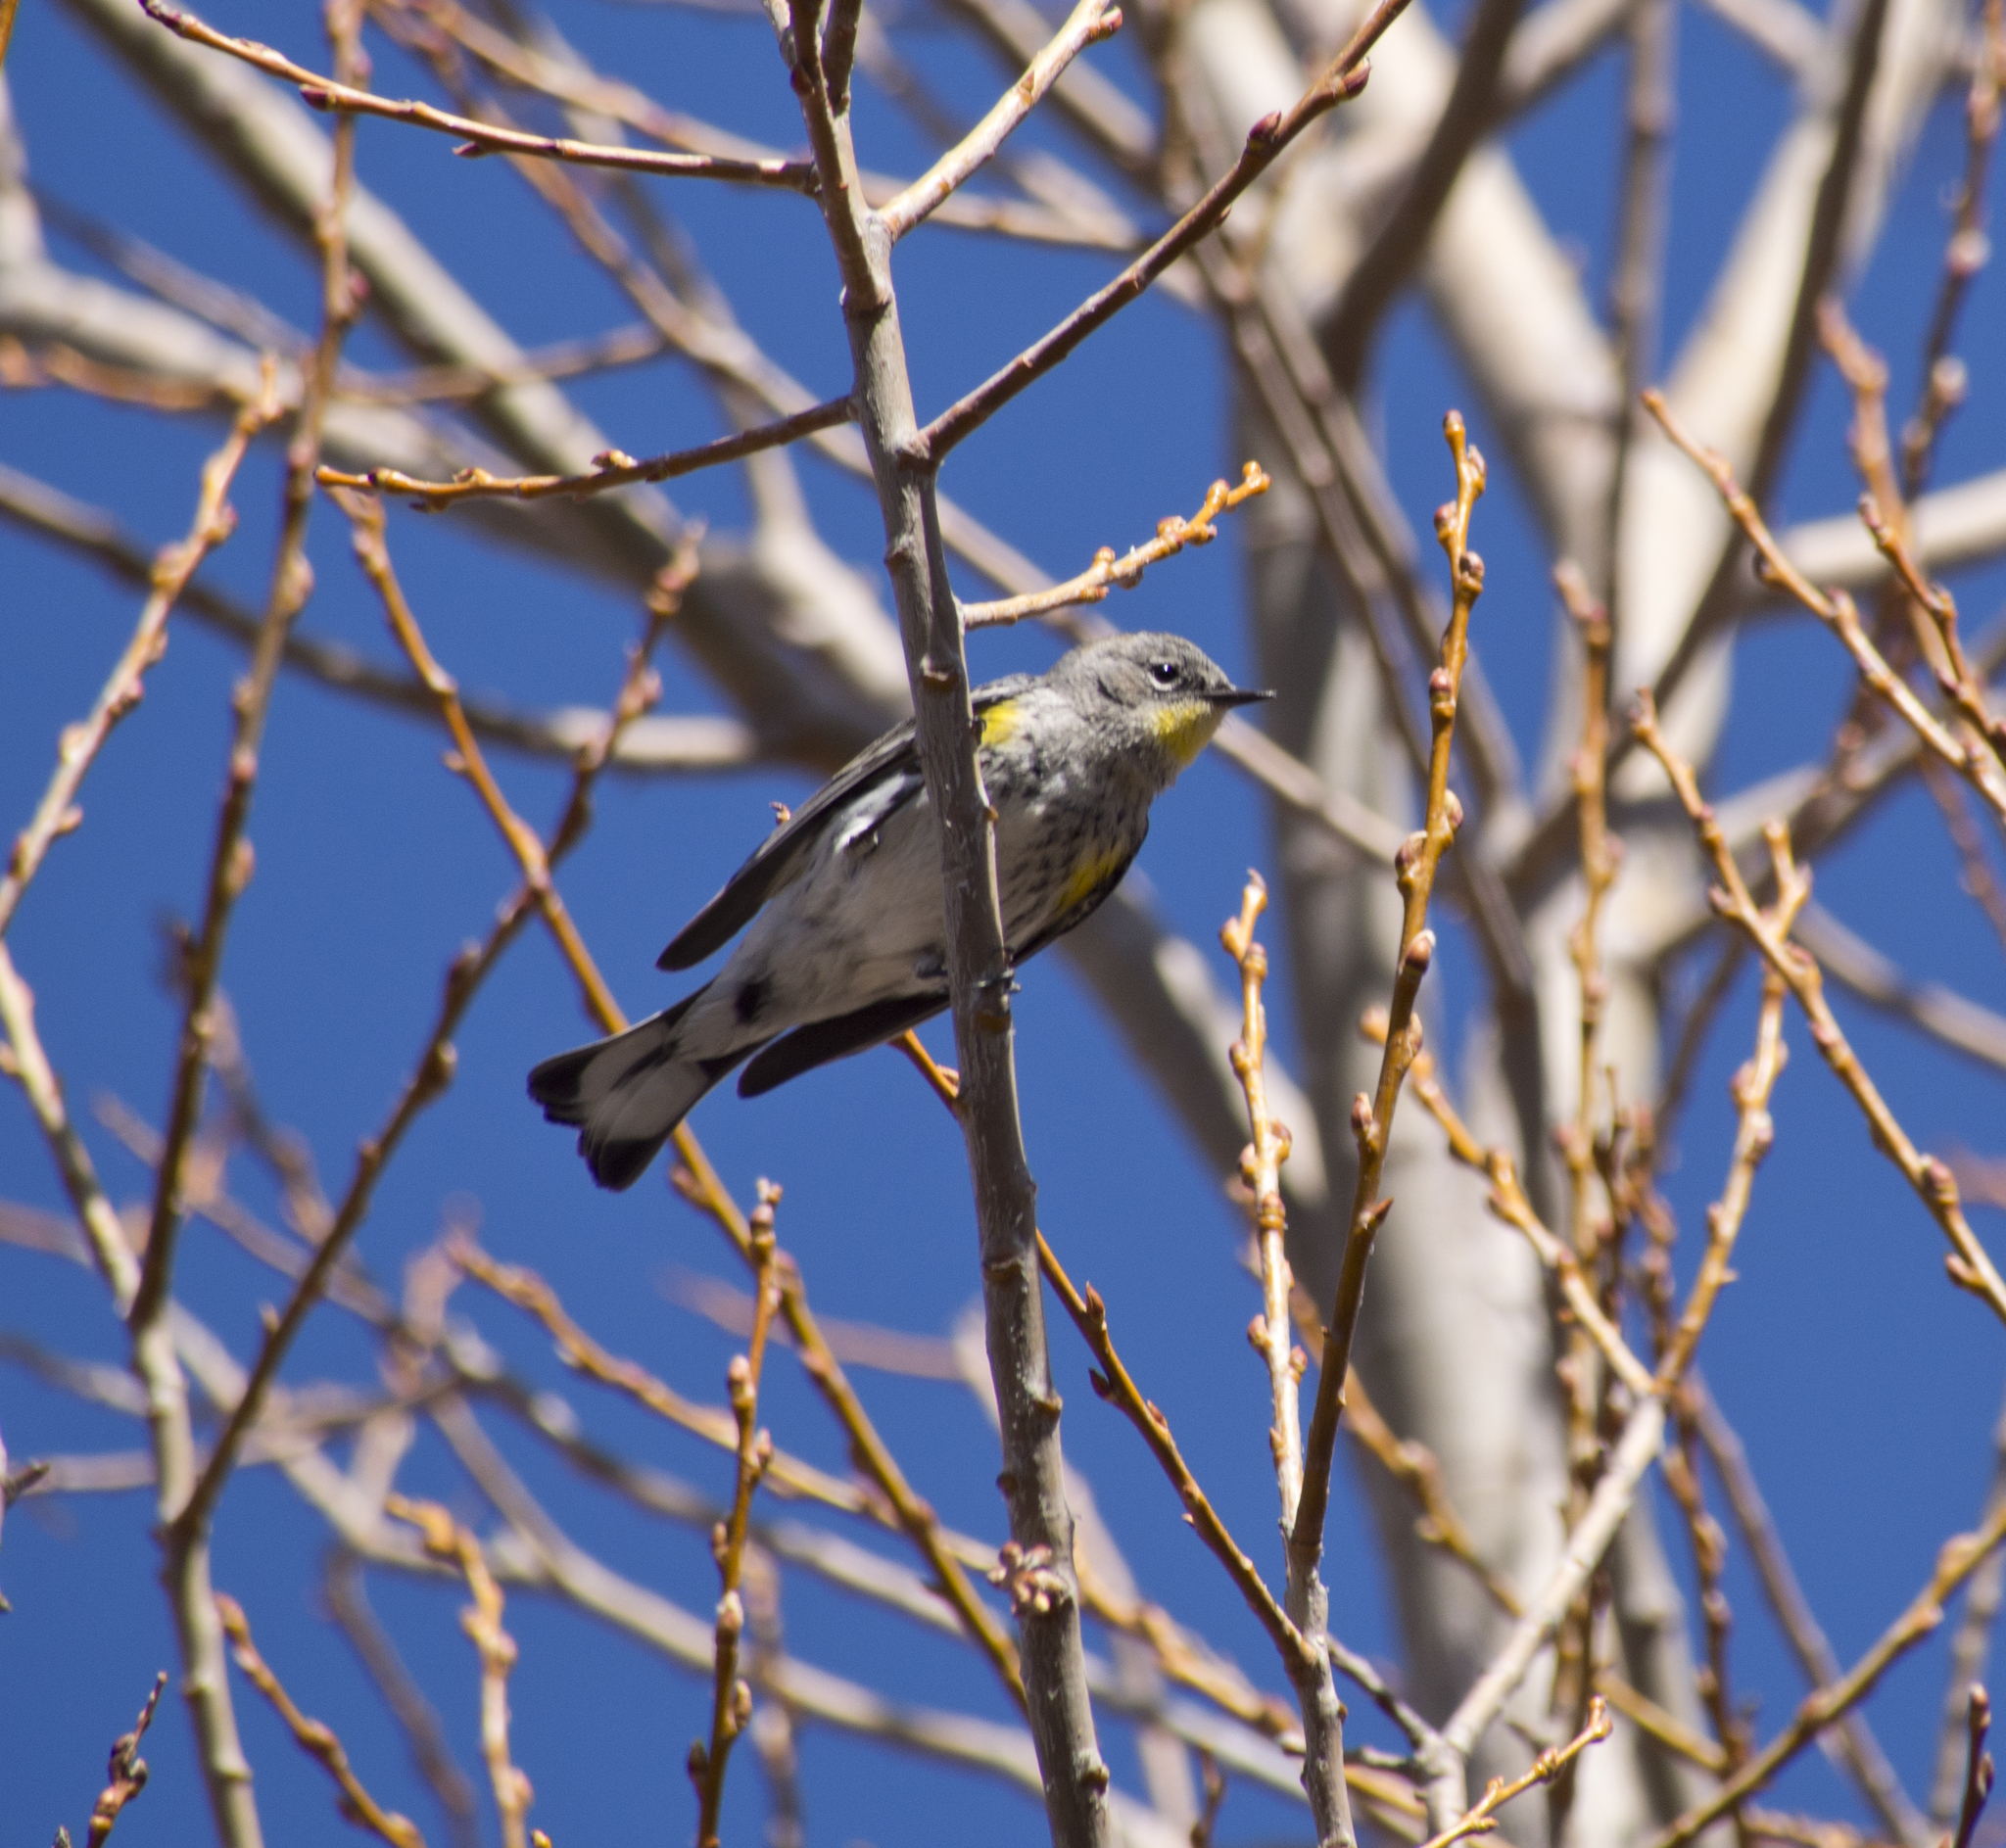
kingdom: Animalia
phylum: Chordata
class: Aves
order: Passeriformes
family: Parulidae
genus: Setophaga
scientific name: Setophaga coronata
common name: Myrtle warbler
